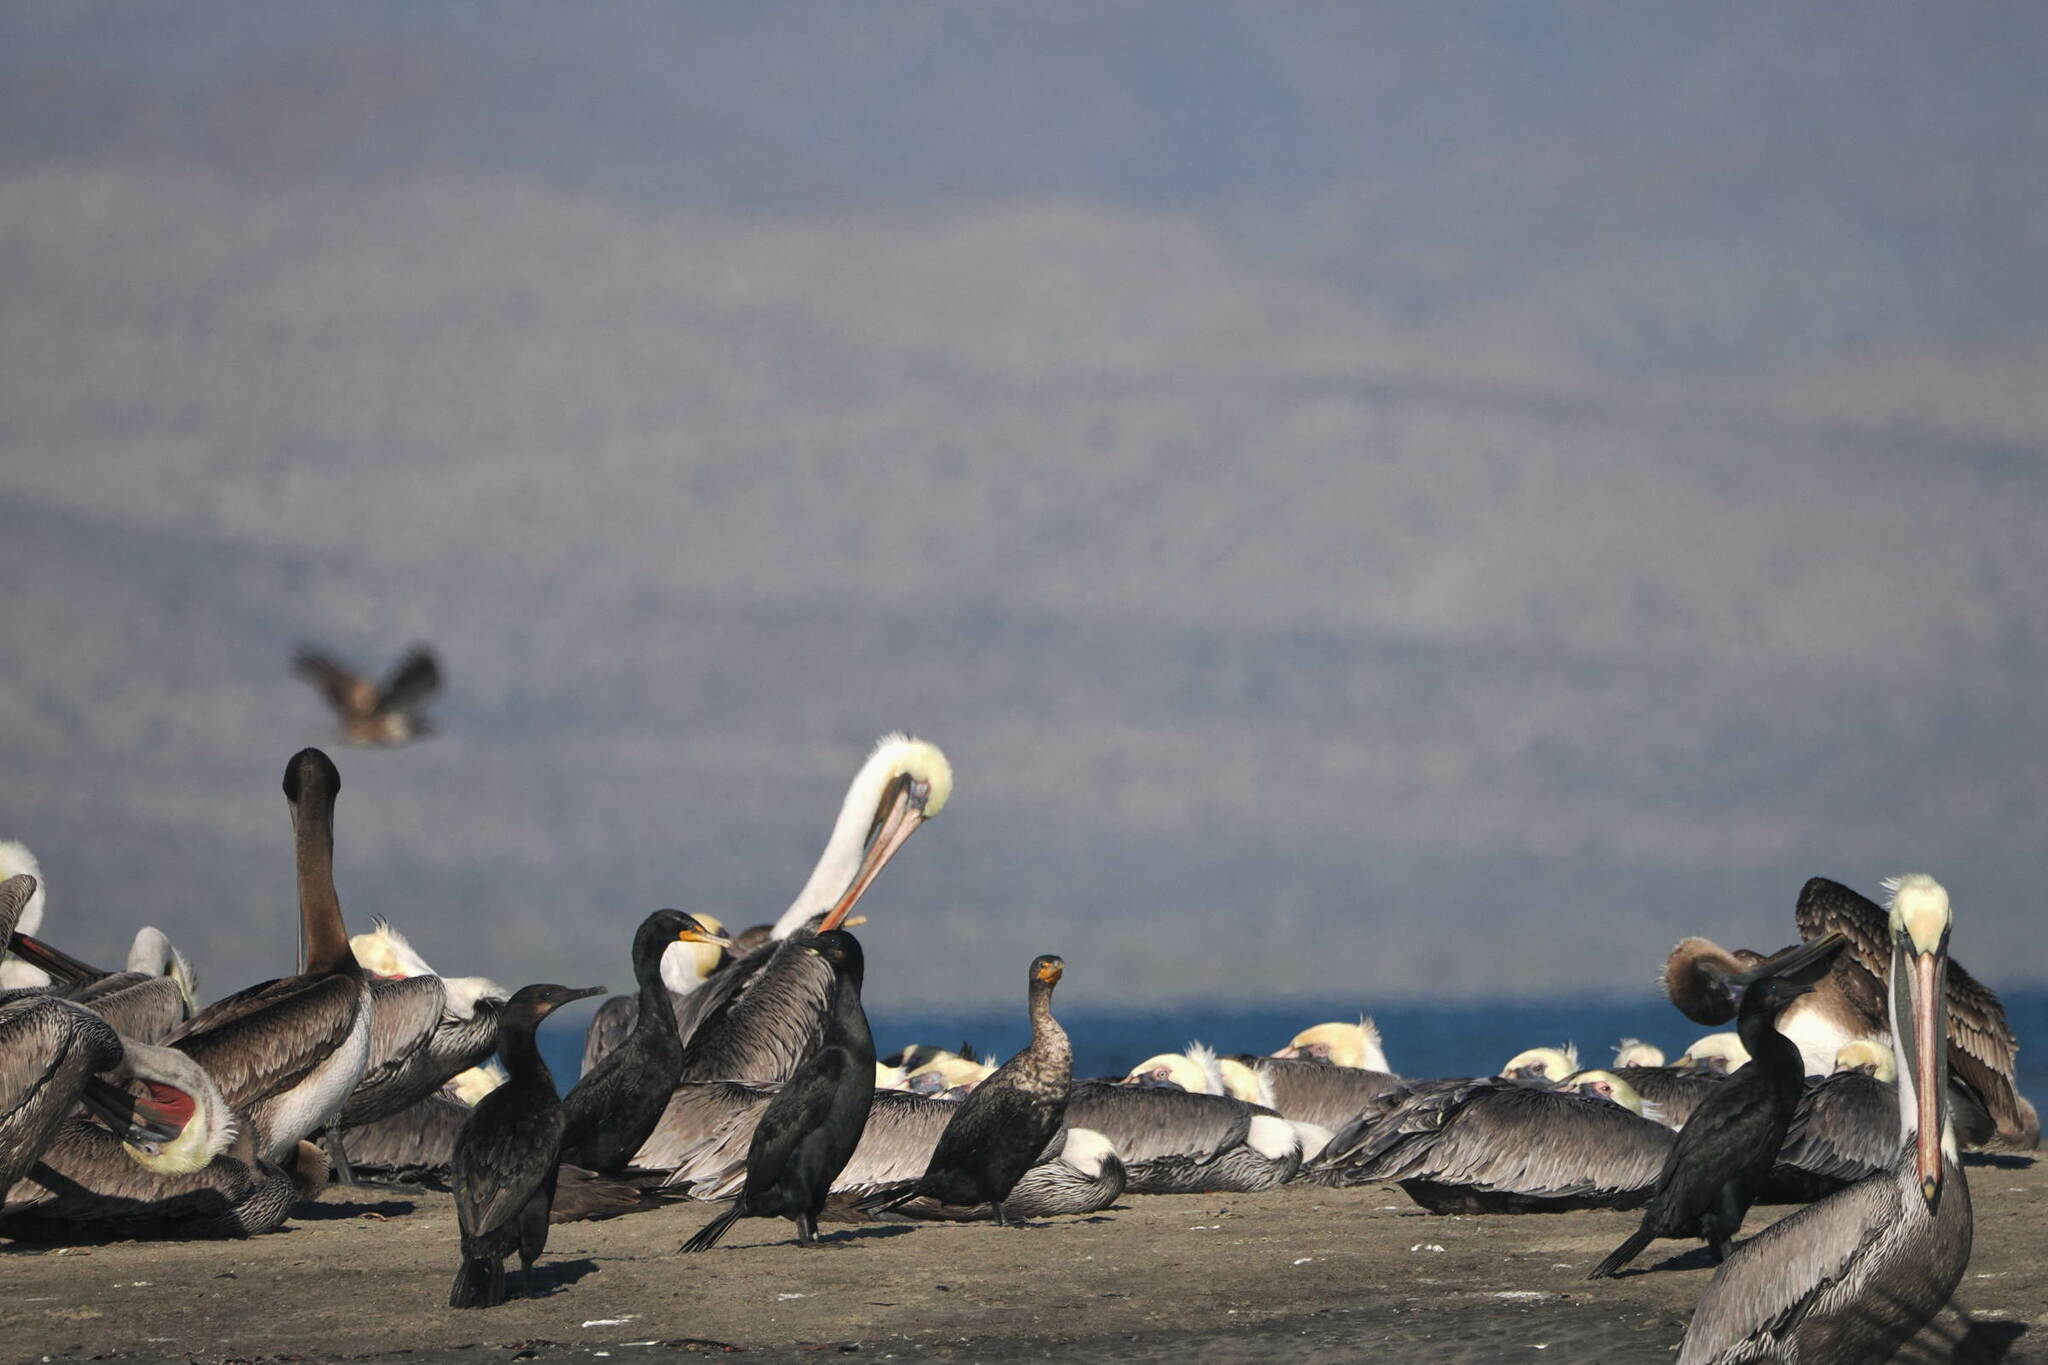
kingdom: Animalia
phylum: Chordata
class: Aves
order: Accipitriformes
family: Accipitridae
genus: Haliaeetus
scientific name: Haliaeetus leucocephalus
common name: Bald eagle
